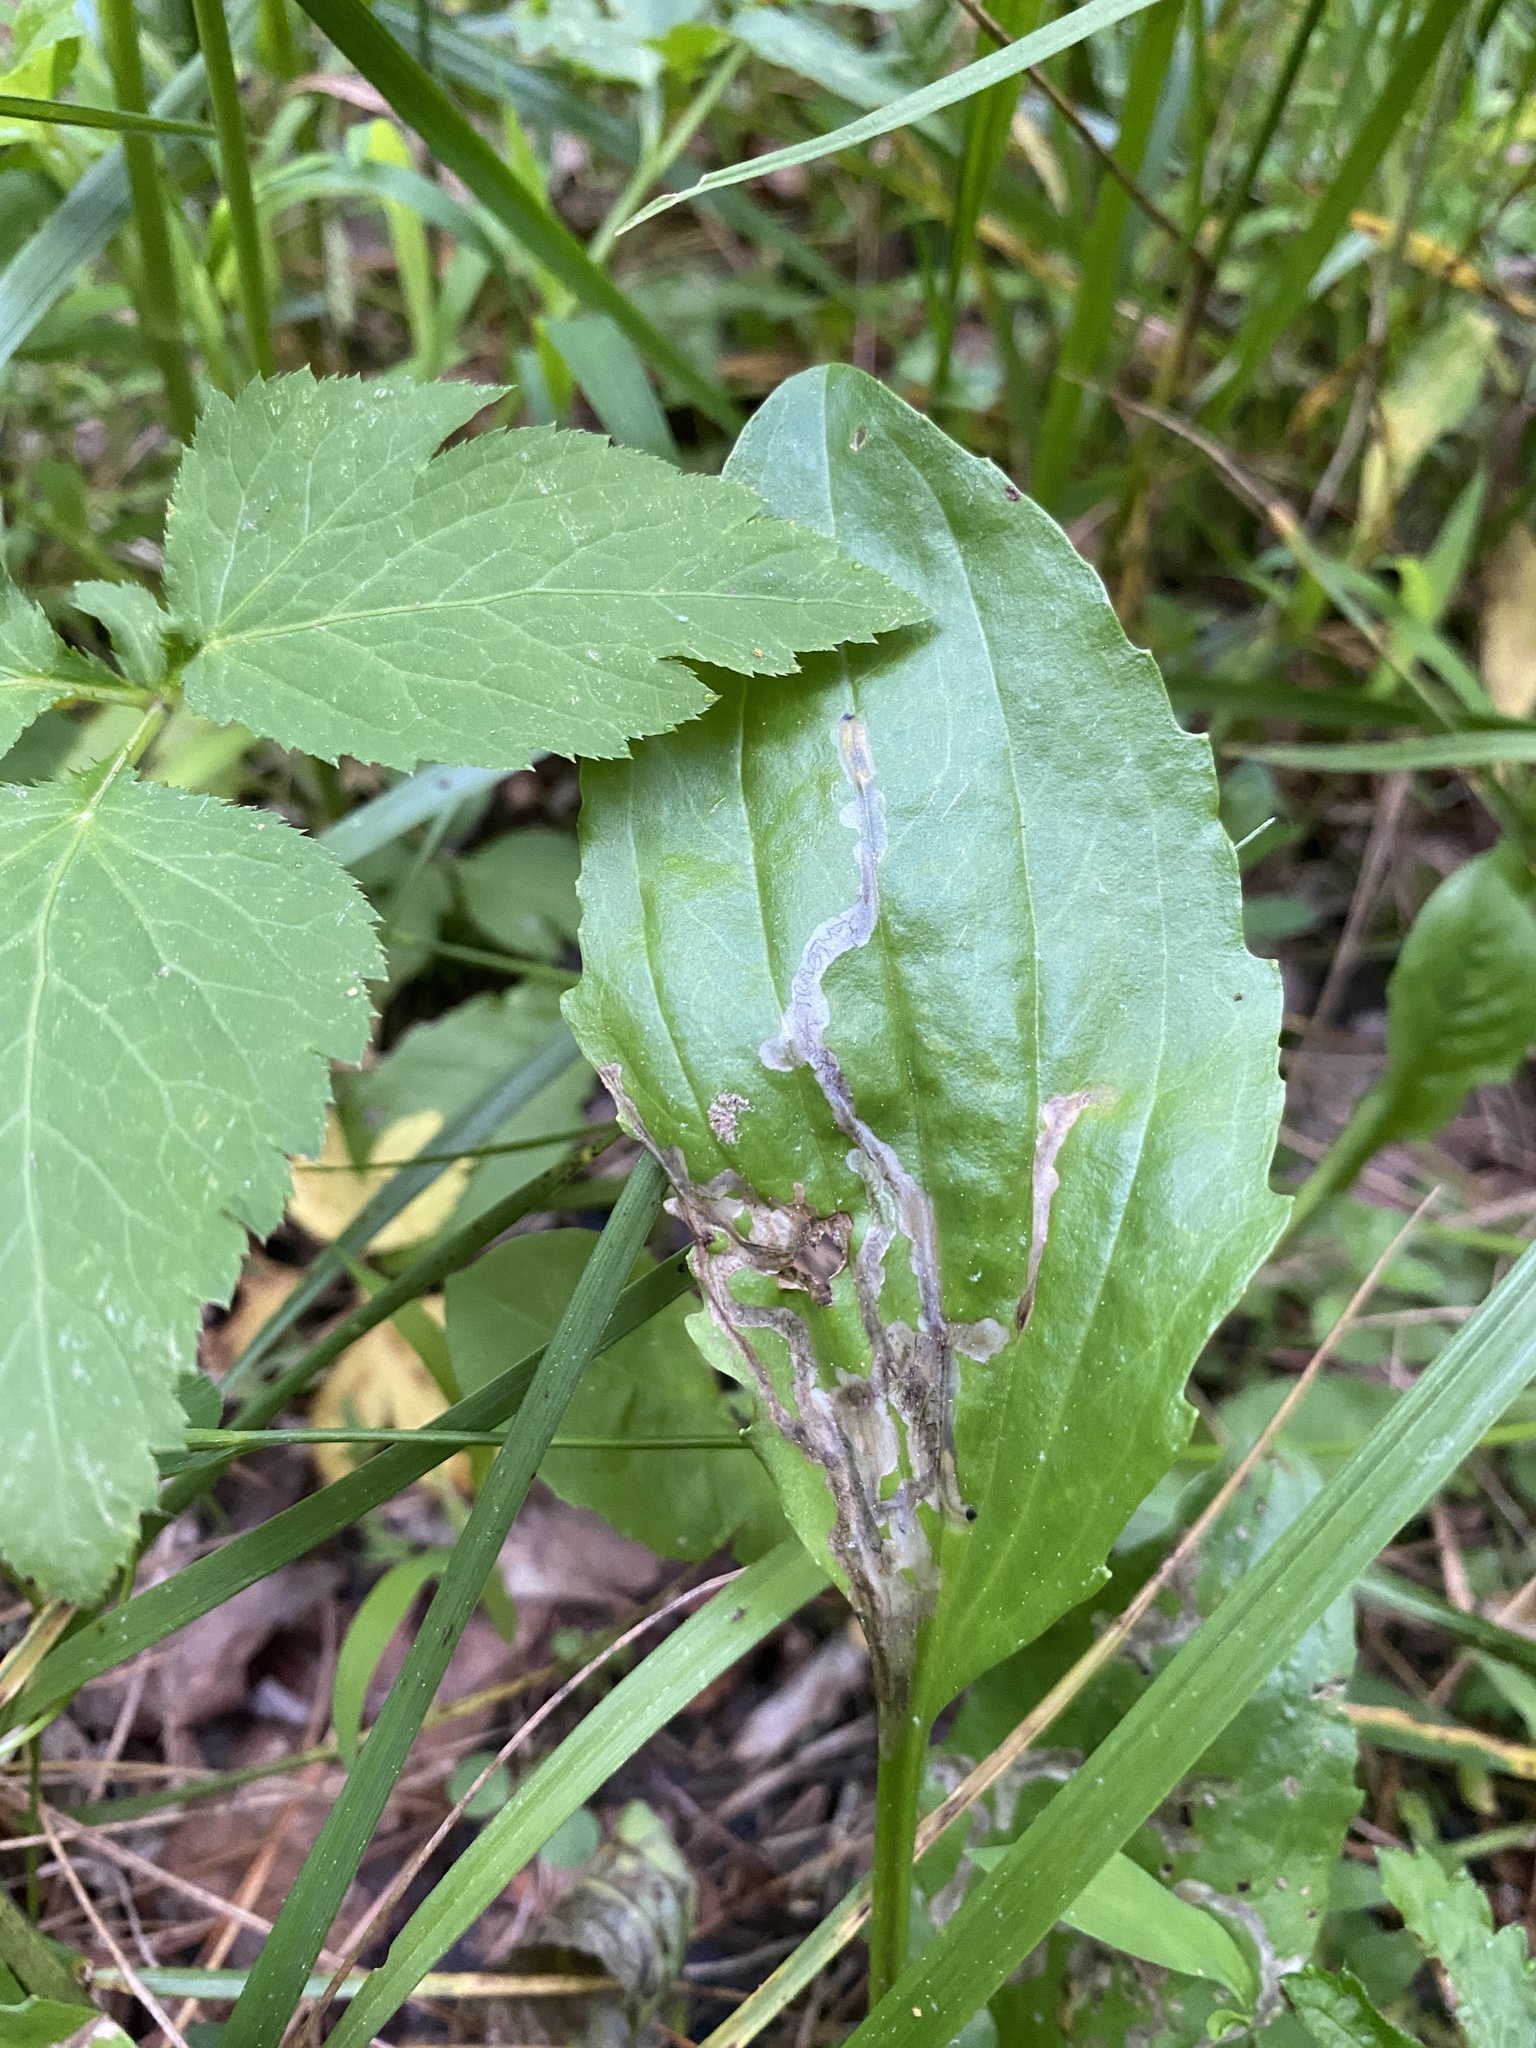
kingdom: Animalia
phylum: Arthropoda
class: Insecta
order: Coleoptera
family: Chrysomelidae
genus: Dibolia
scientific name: Dibolia borealis
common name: Northern plantain flea beetle
